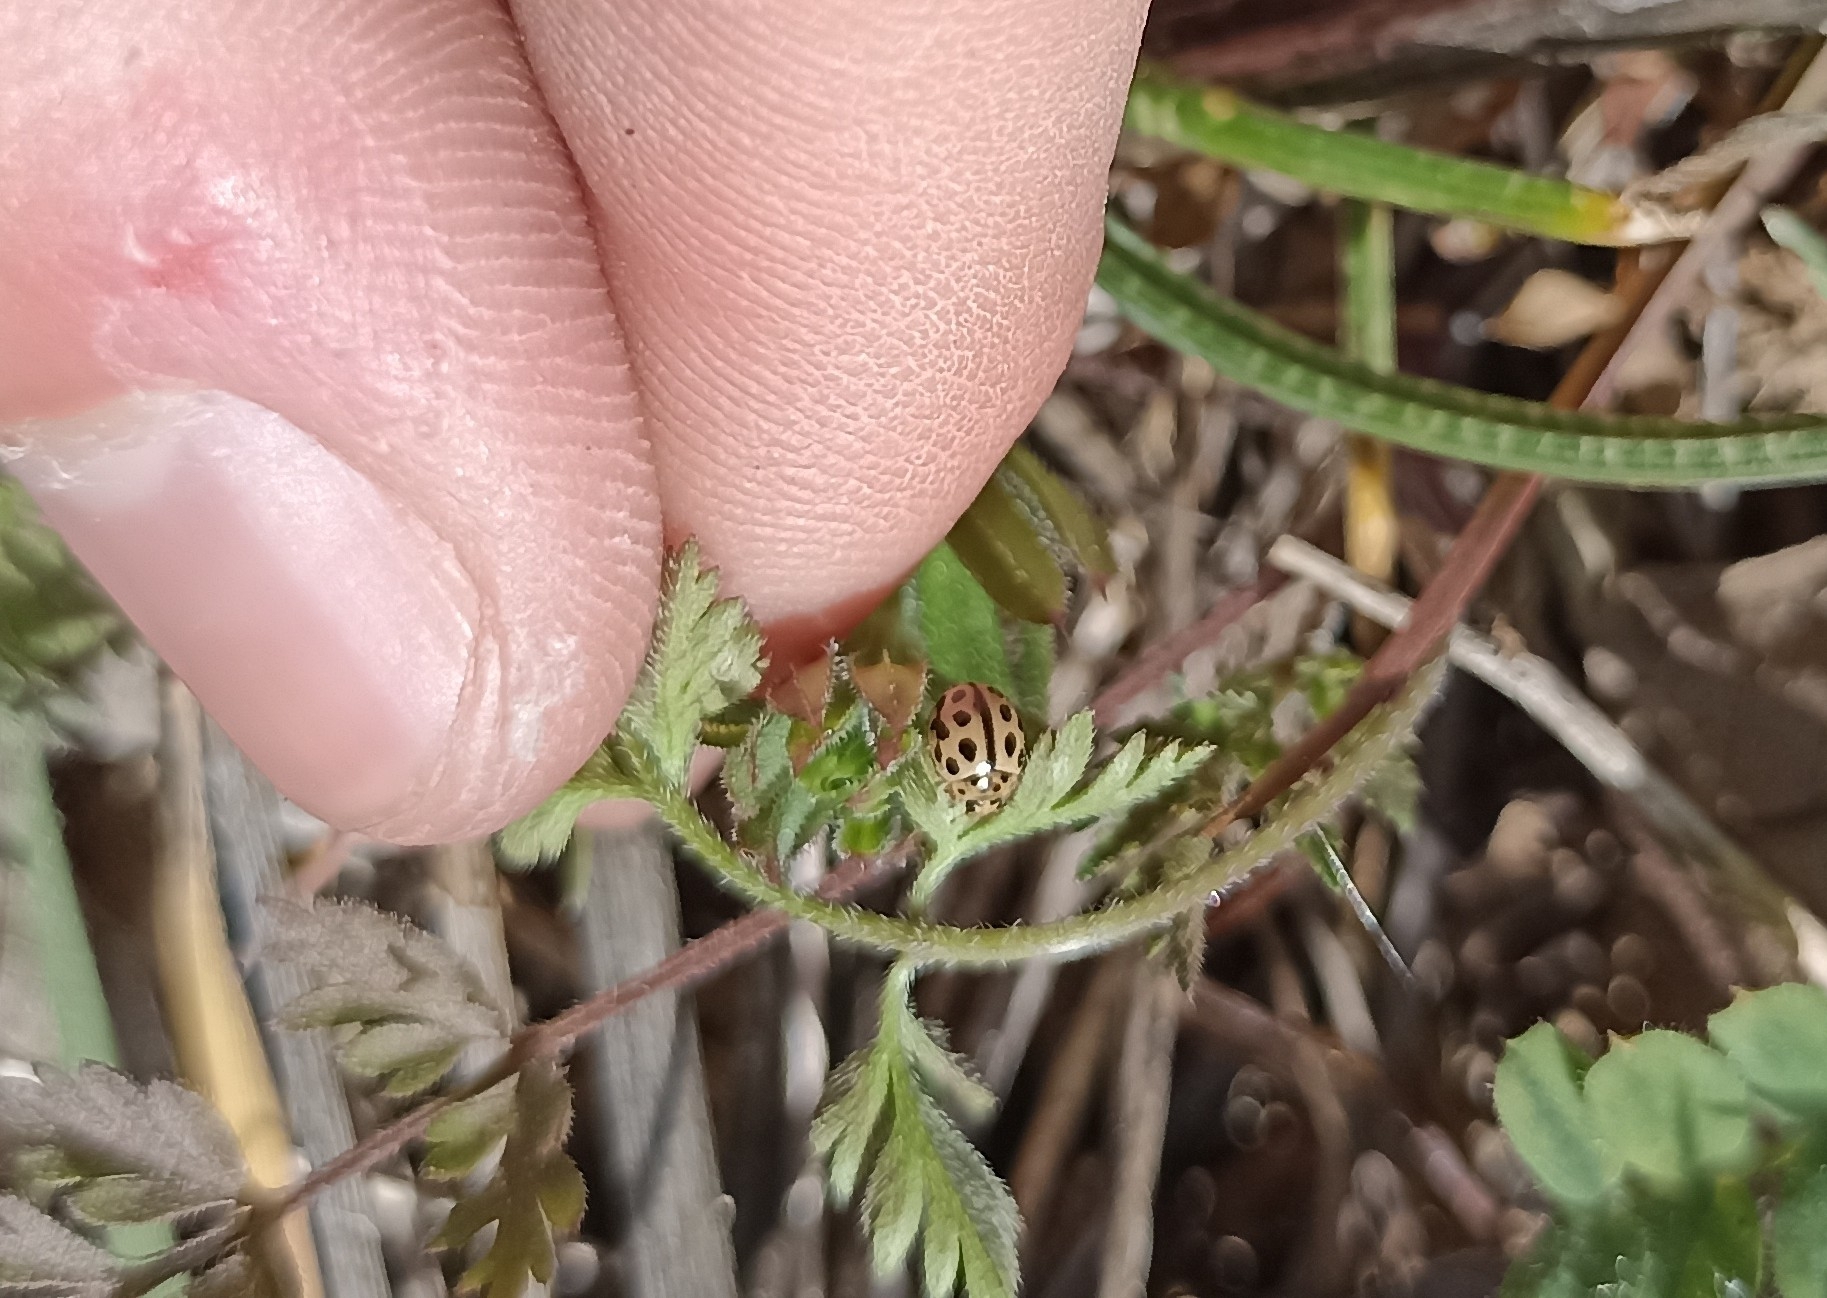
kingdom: Animalia
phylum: Arthropoda
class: Insecta
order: Coleoptera
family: Coccinellidae
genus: Tytthaspis
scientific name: Tytthaspis sedecimpunctata
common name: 16-spot ladybird
